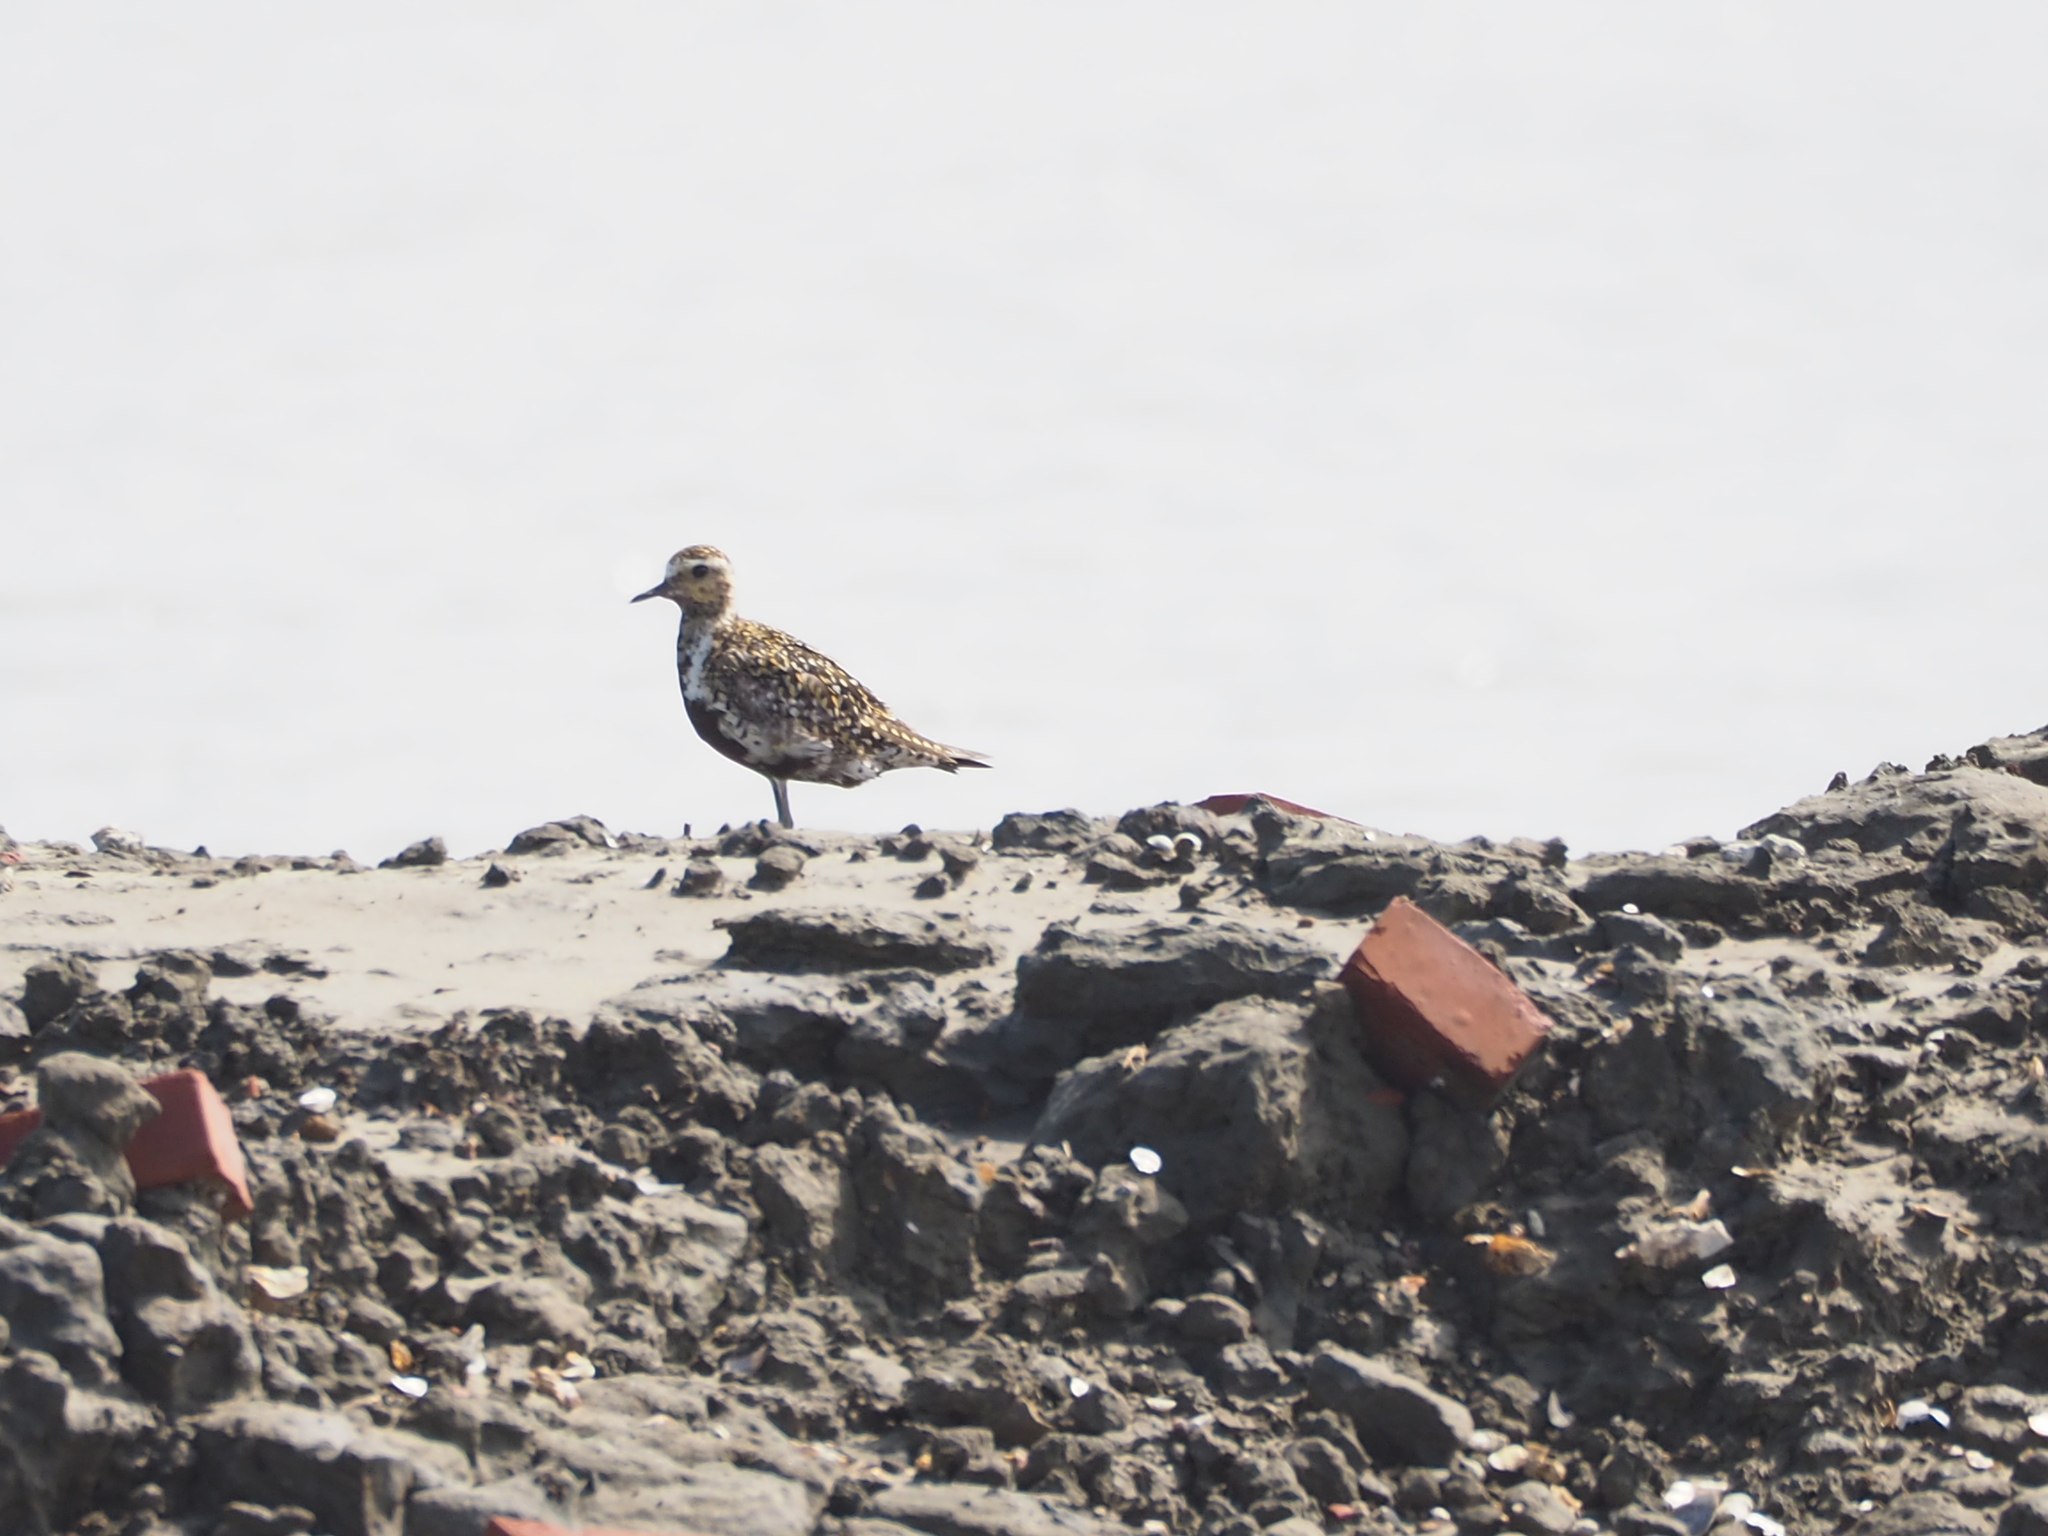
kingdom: Animalia
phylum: Chordata
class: Aves
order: Charadriiformes
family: Charadriidae
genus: Pluvialis
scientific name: Pluvialis fulva
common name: Pacific golden plover
